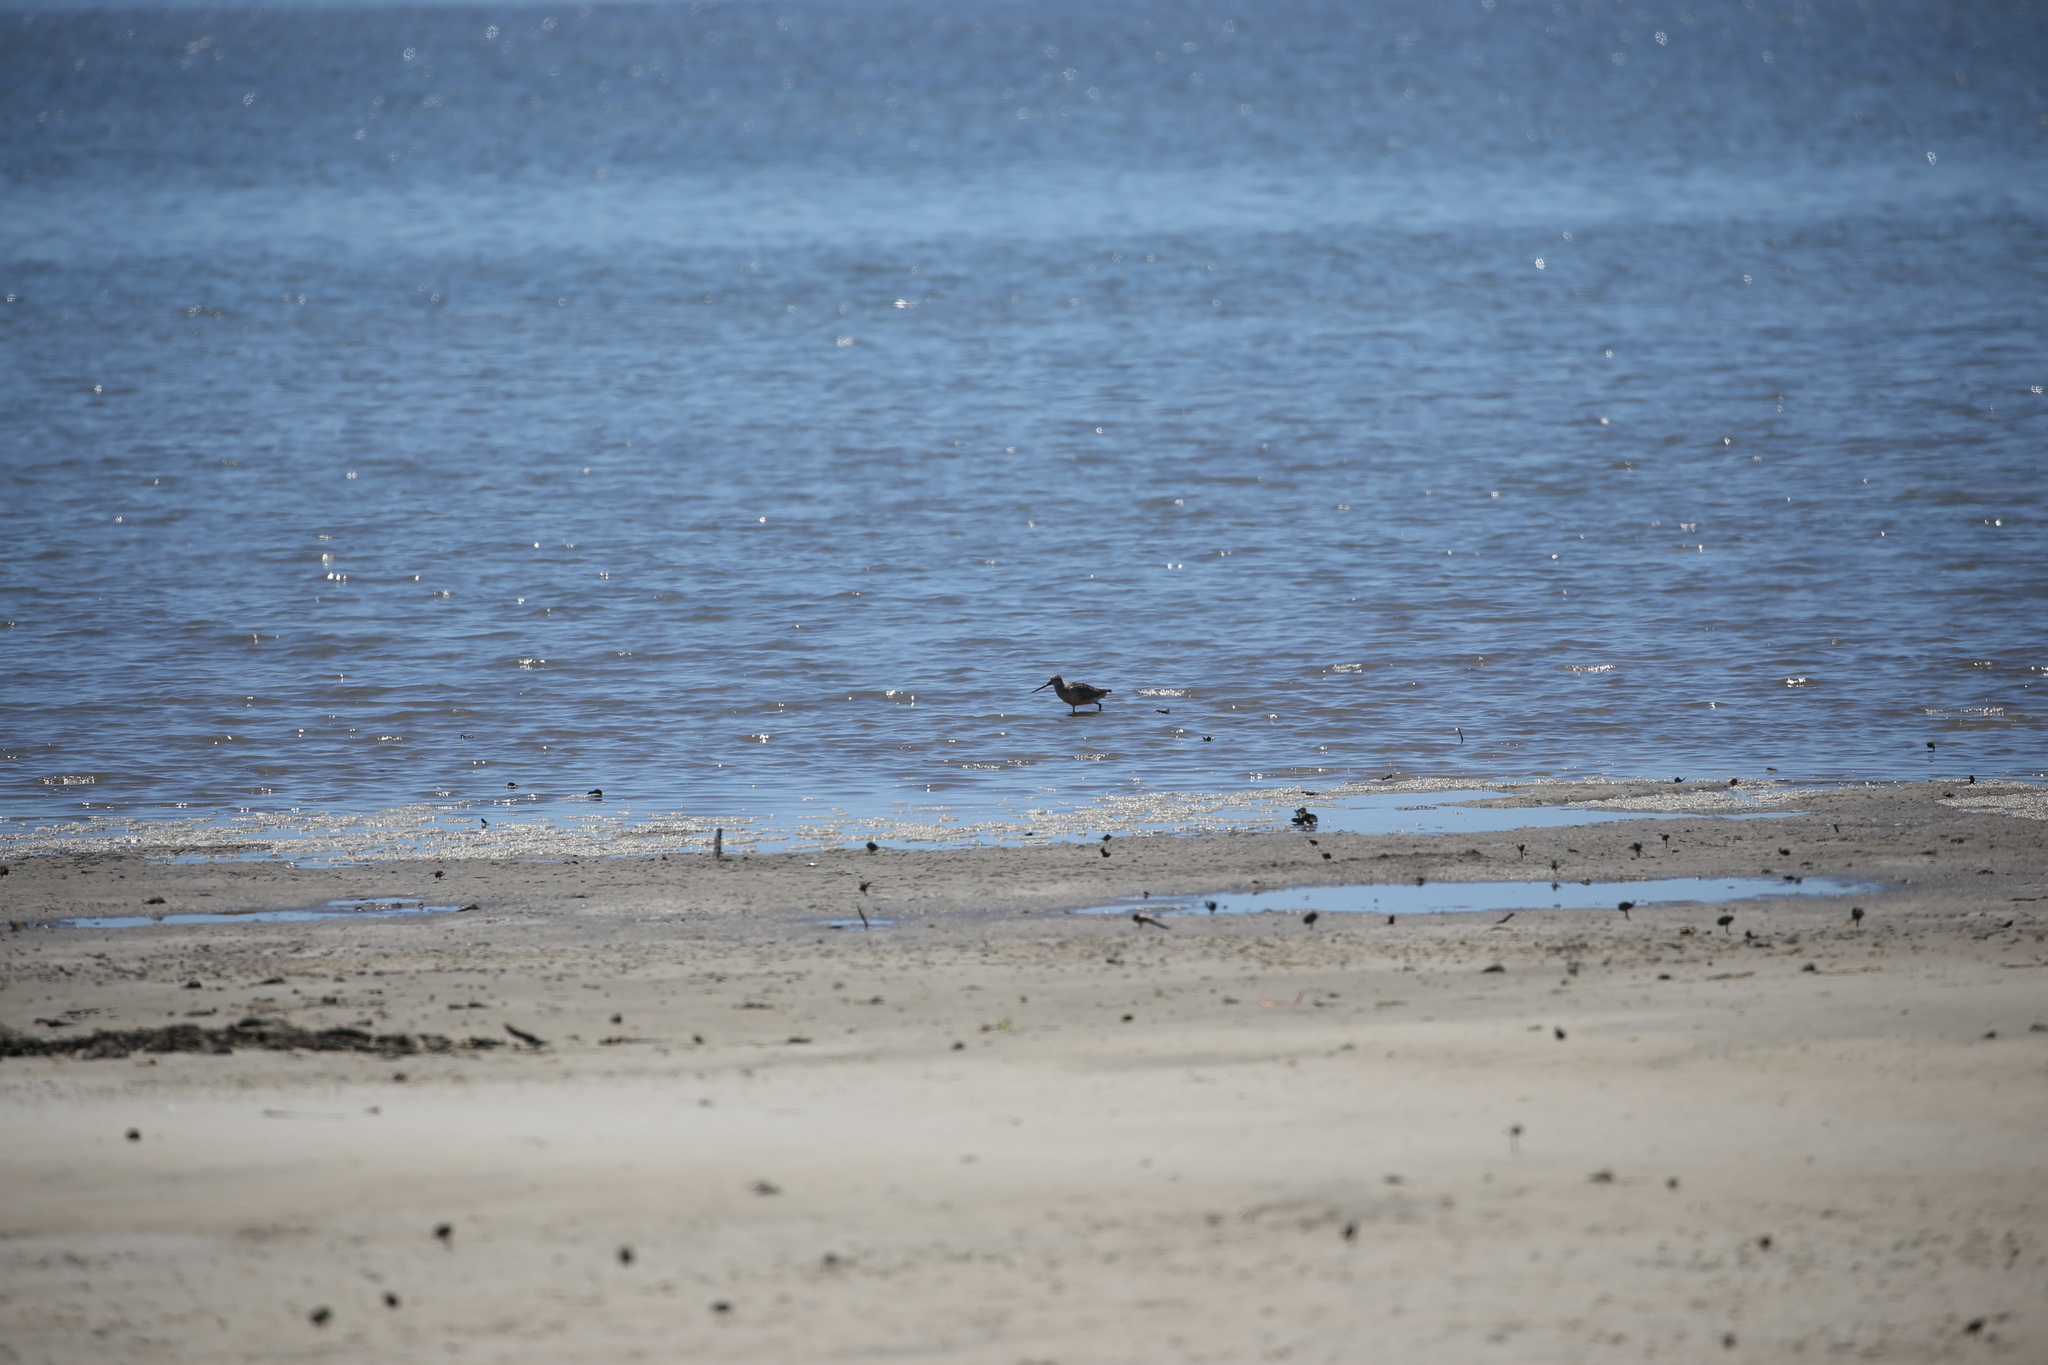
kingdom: Animalia
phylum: Chordata
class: Aves
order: Charadriiformes
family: Scolopacidae
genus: Limosa
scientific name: Limosa lapponica
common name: Bar-tailed godwit
